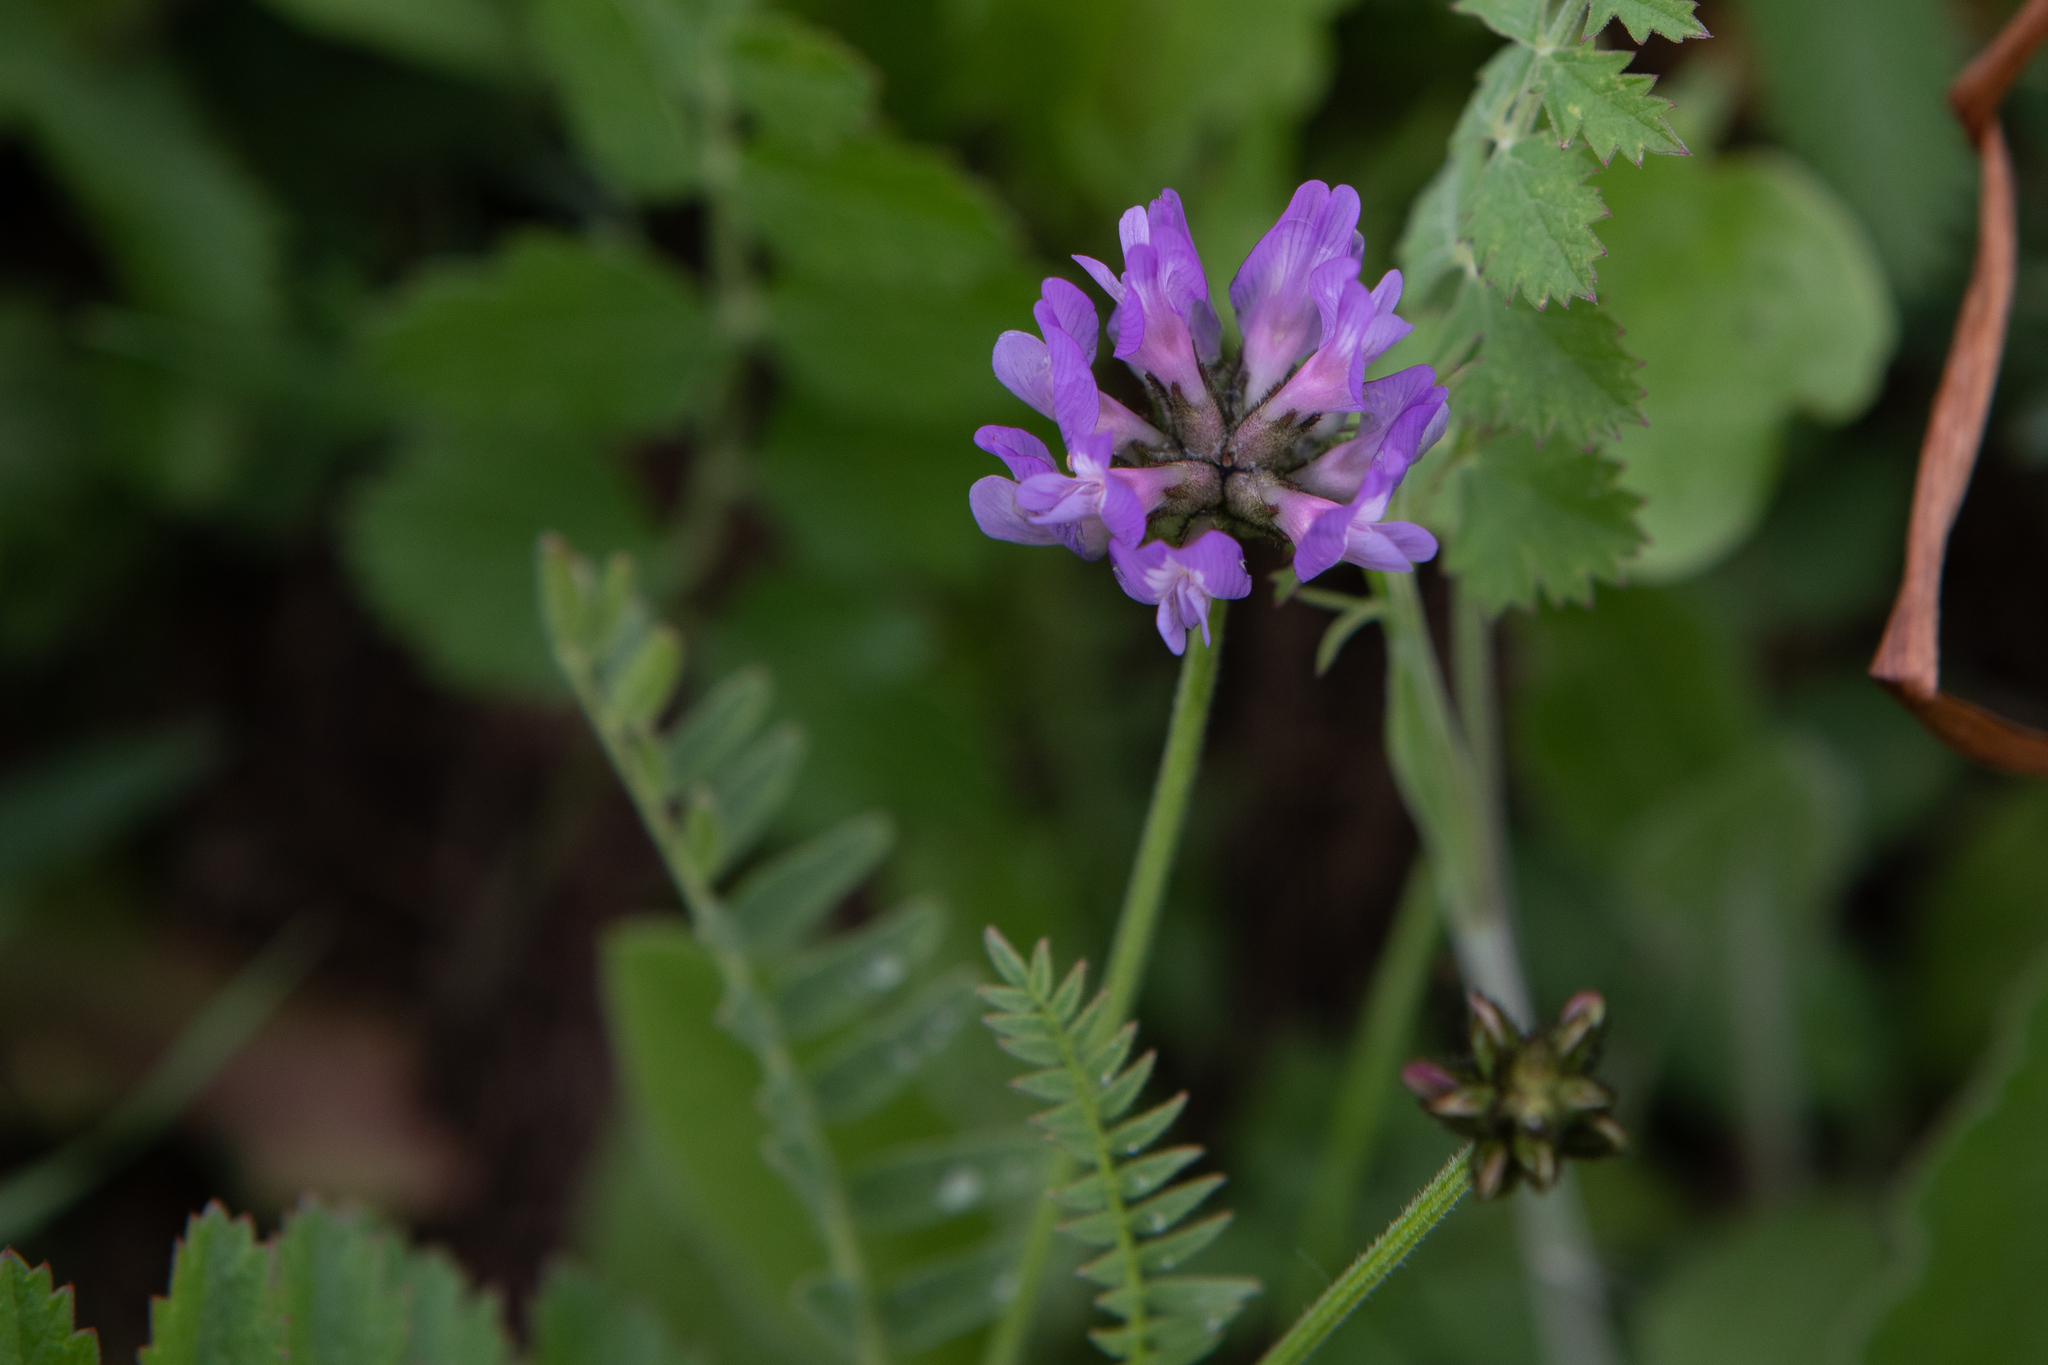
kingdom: Plantae
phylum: Tracheophyta
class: Magnoliopsida
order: Fabales
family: Fabaceae
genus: Astragalus
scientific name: Astragalus danicus
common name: Purple milk-vetch
